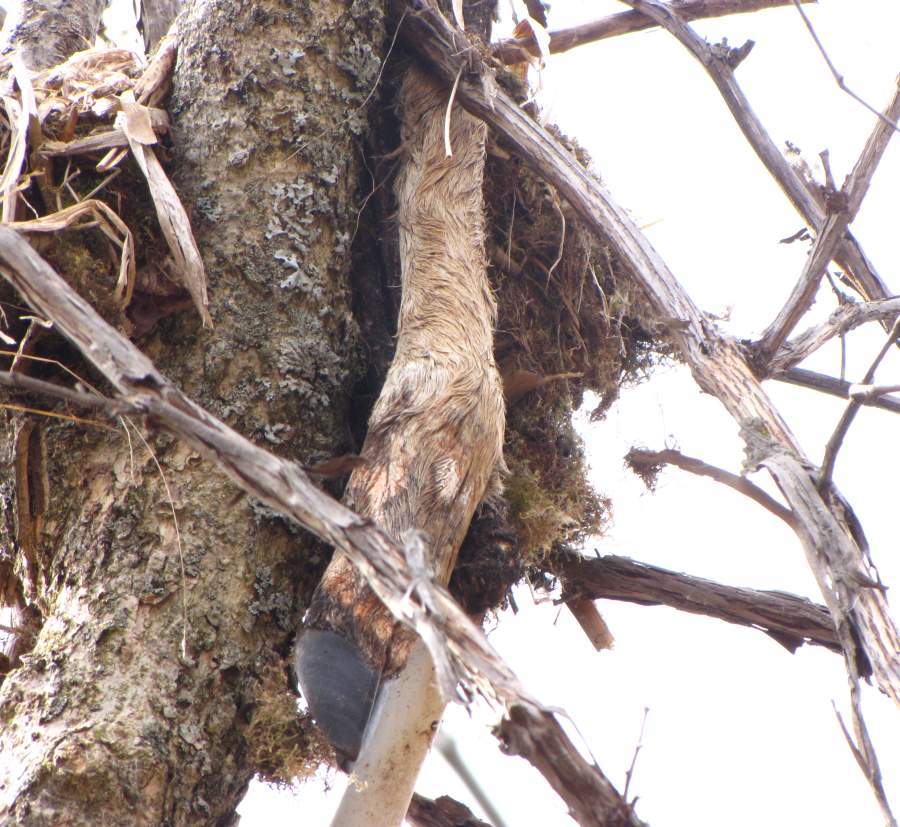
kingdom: Animalia
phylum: Chordata
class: Mammalia
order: Artiodactyla
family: Cervidae
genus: Odocoileus
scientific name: Odocoileus virginianus
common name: White-tailed deer
